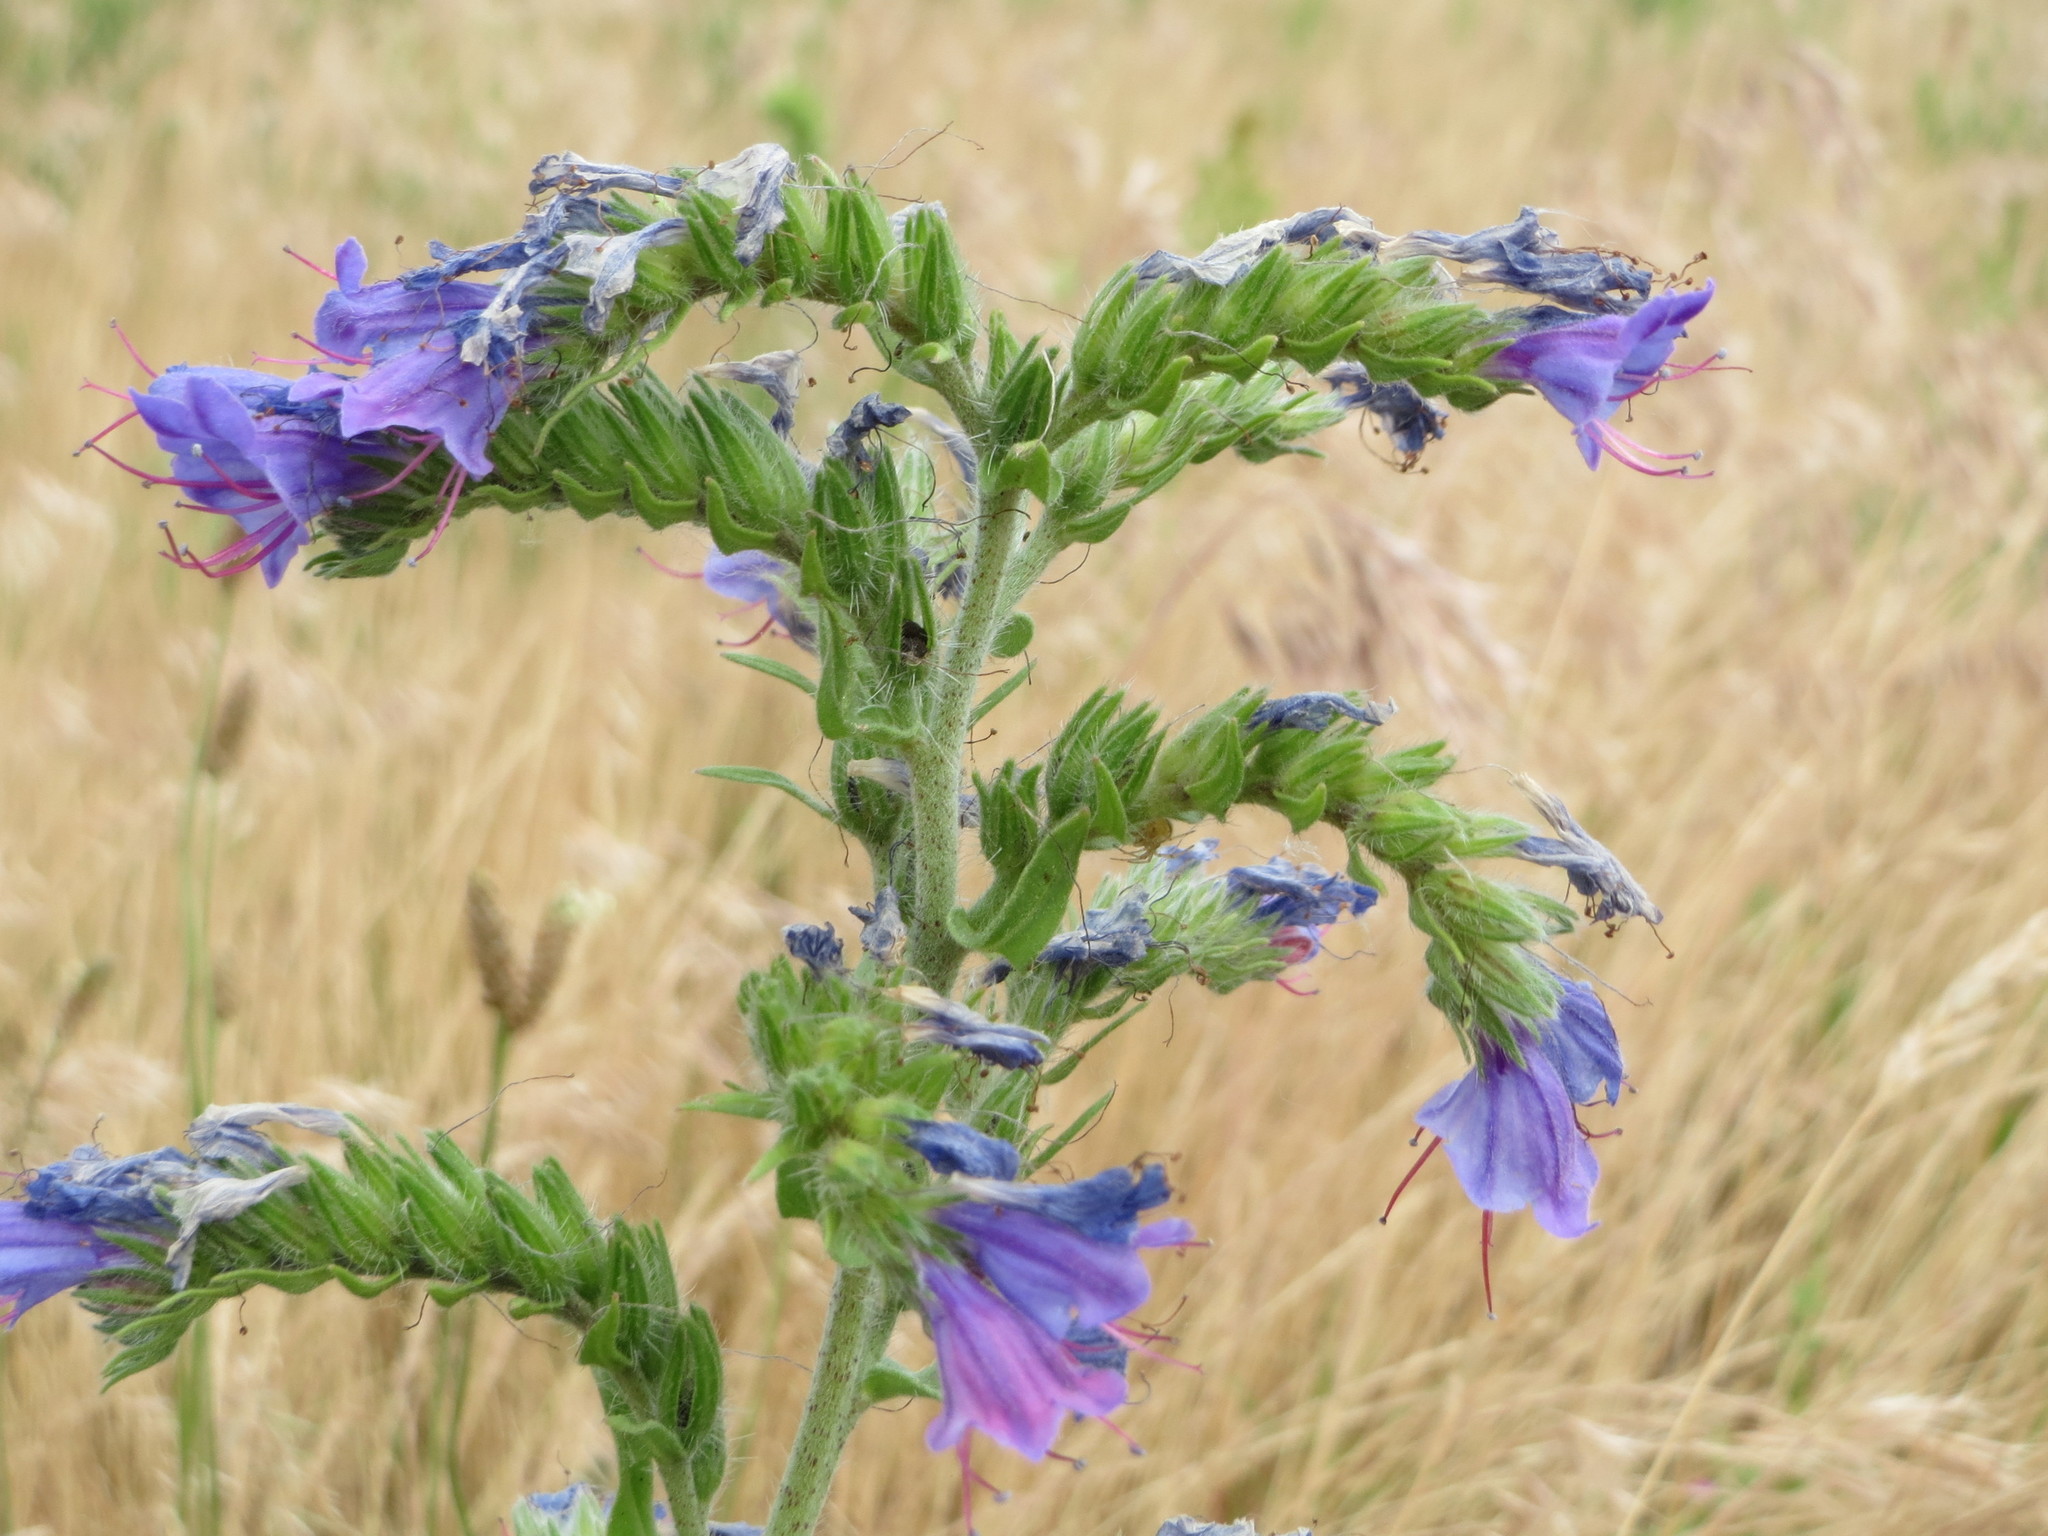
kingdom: Plantae
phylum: Tracheophyta
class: Magnoliopsida
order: Boraginales
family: Boraginaceae
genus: Echium
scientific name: Echium vulgare
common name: Common viper's bugloss
